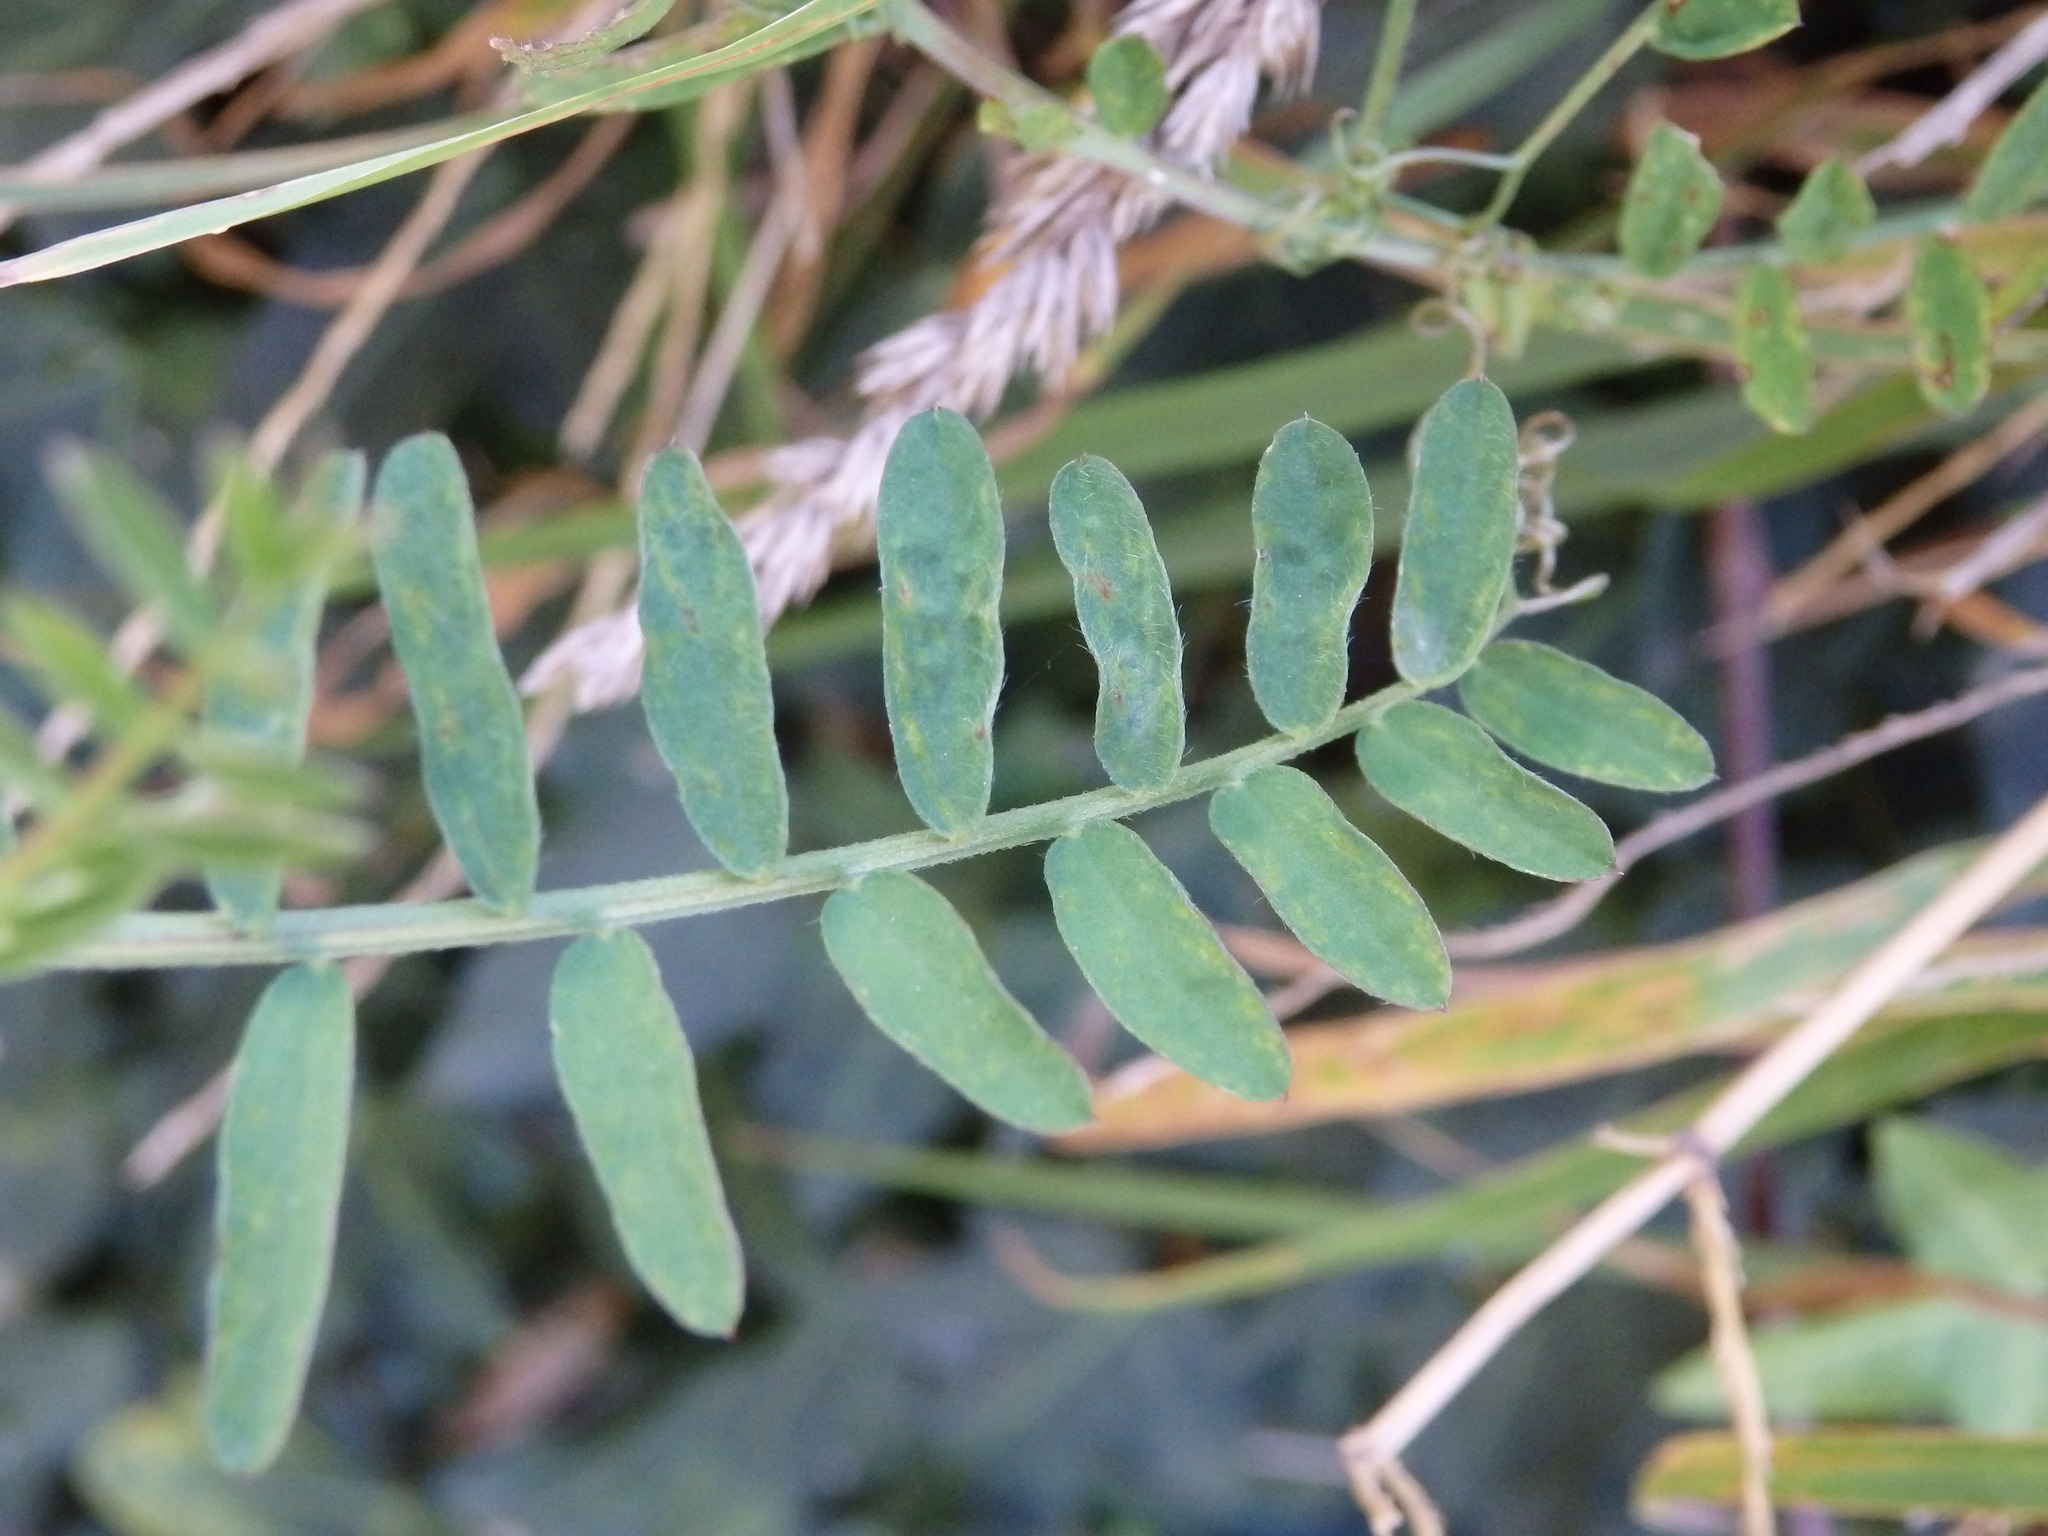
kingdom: Plantae
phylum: Tracheophyta
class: Magnoliopsida
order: Fabales
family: Fabaceae
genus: Vicia
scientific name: Vicia villosa
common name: Fodder vetch
